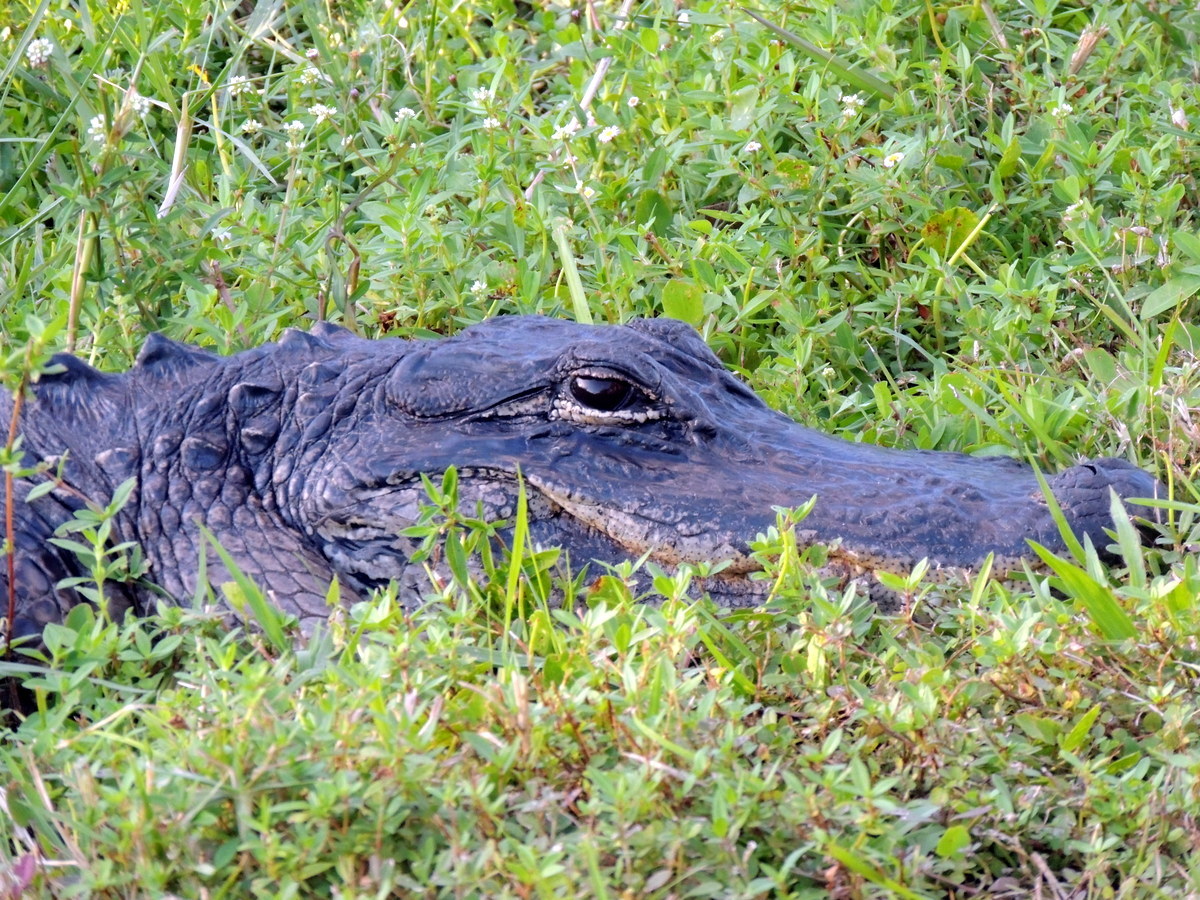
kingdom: Animalia
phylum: Chordata
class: Crocodylia
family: Alligatoridae
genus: Alligator
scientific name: Alligator mississippiensis
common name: American alligator
